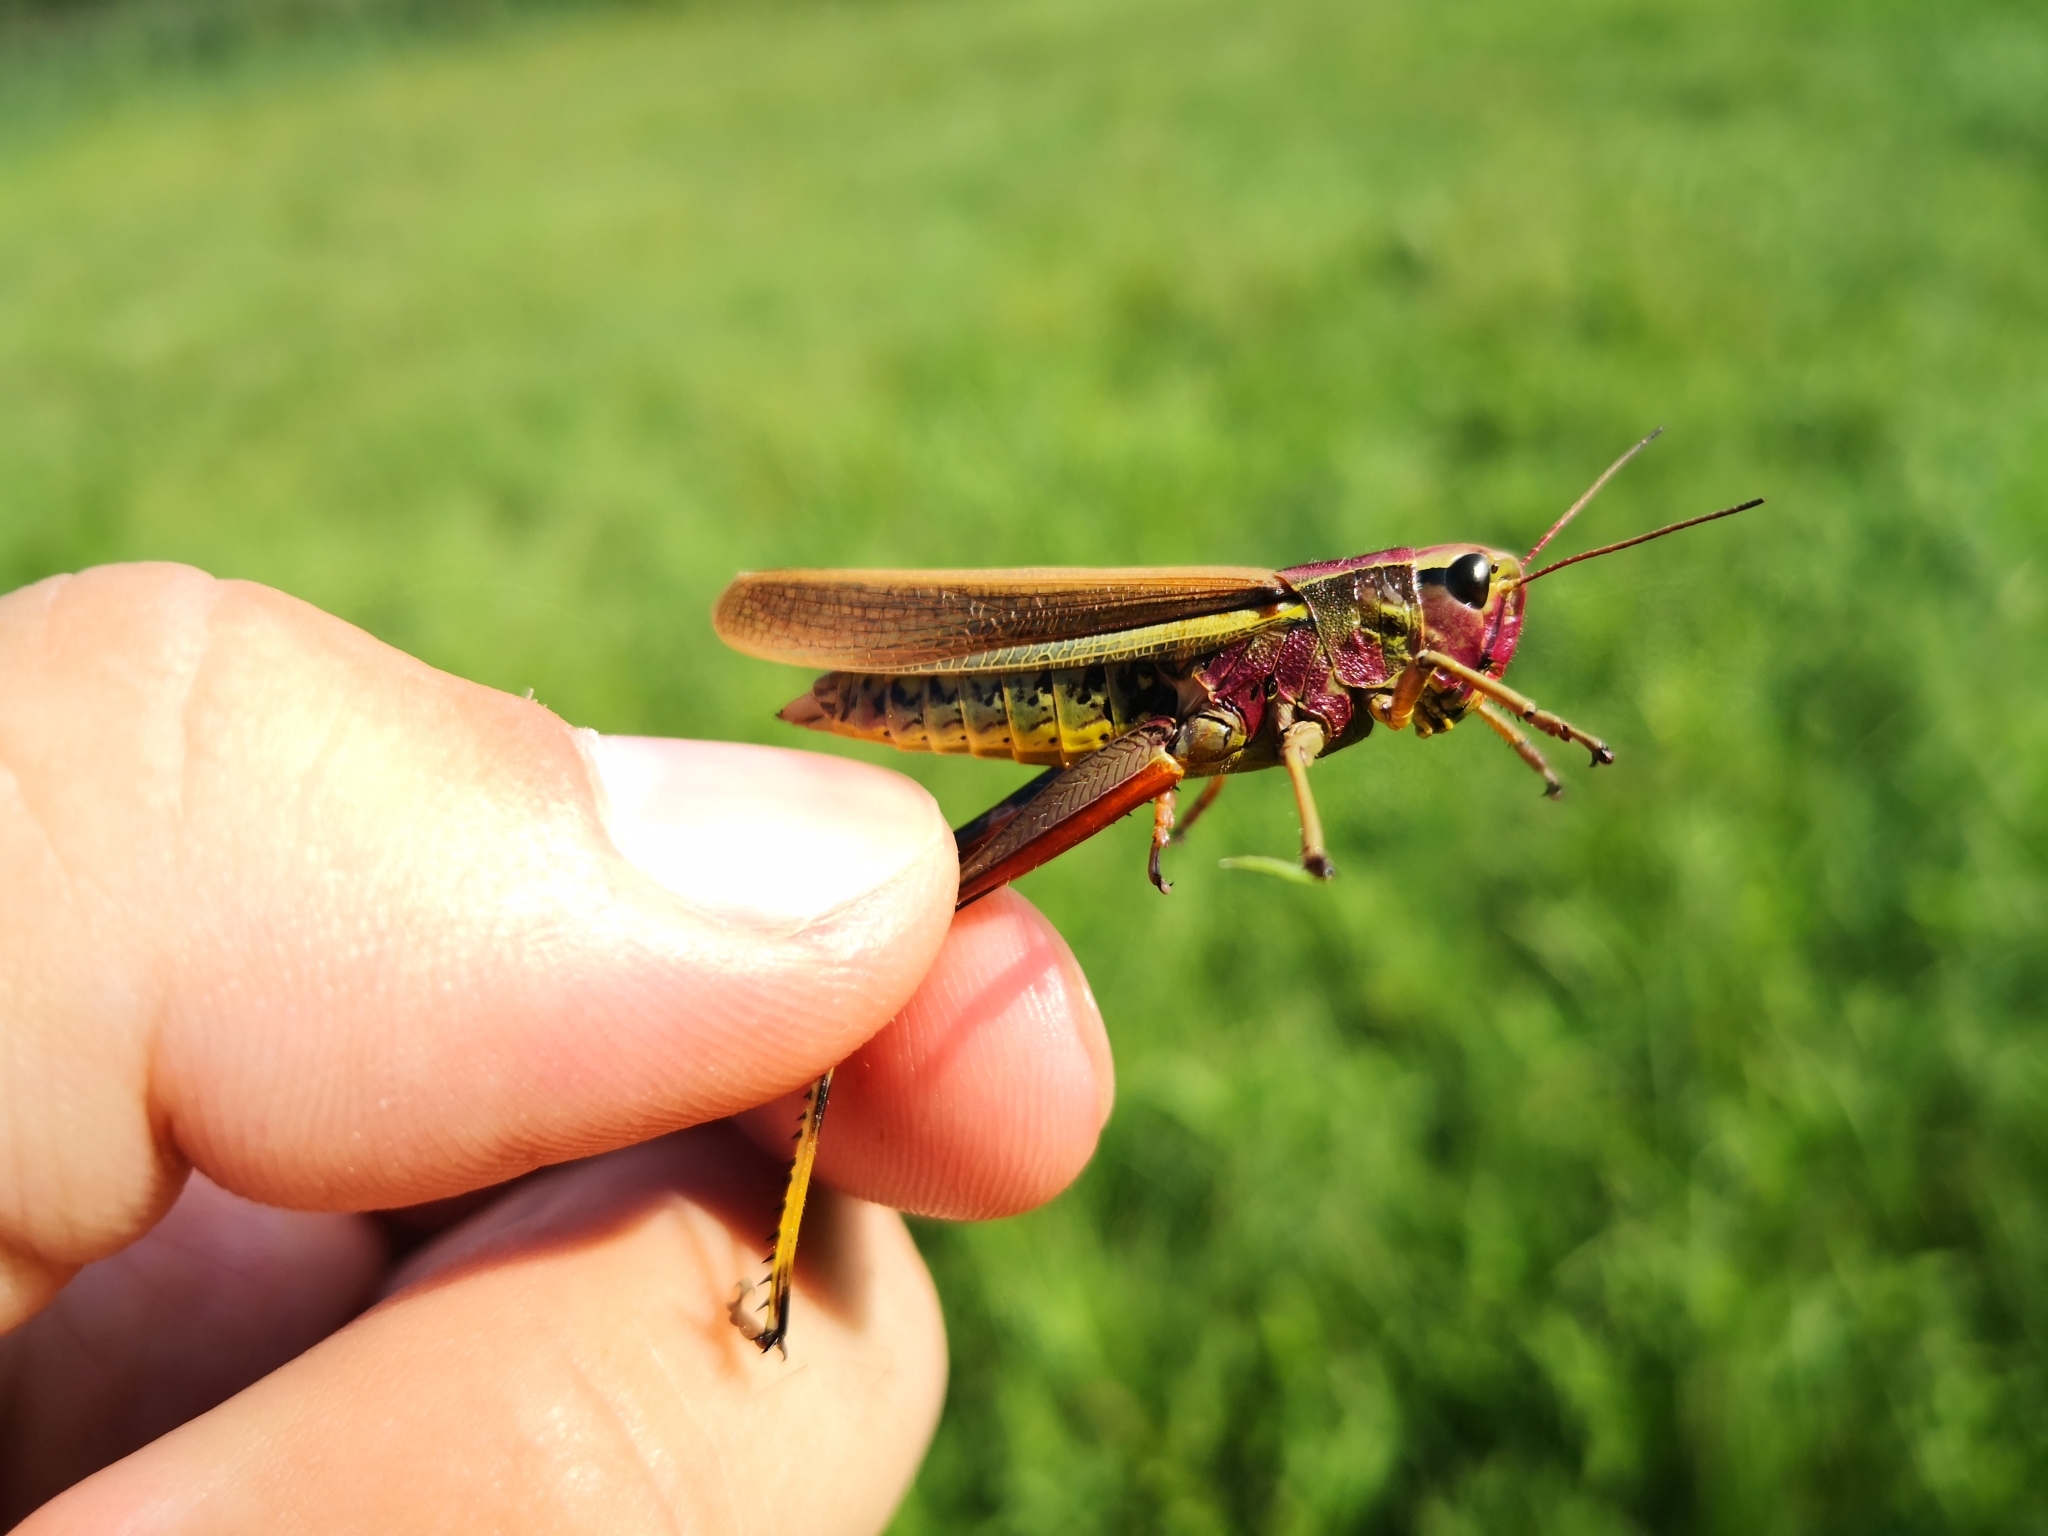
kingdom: Animalia
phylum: Arthropoda
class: Insecta
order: Orthoptera
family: Acrididae
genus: Stethophyma
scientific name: Stethophyma grossum
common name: Large marsh grasshopper
